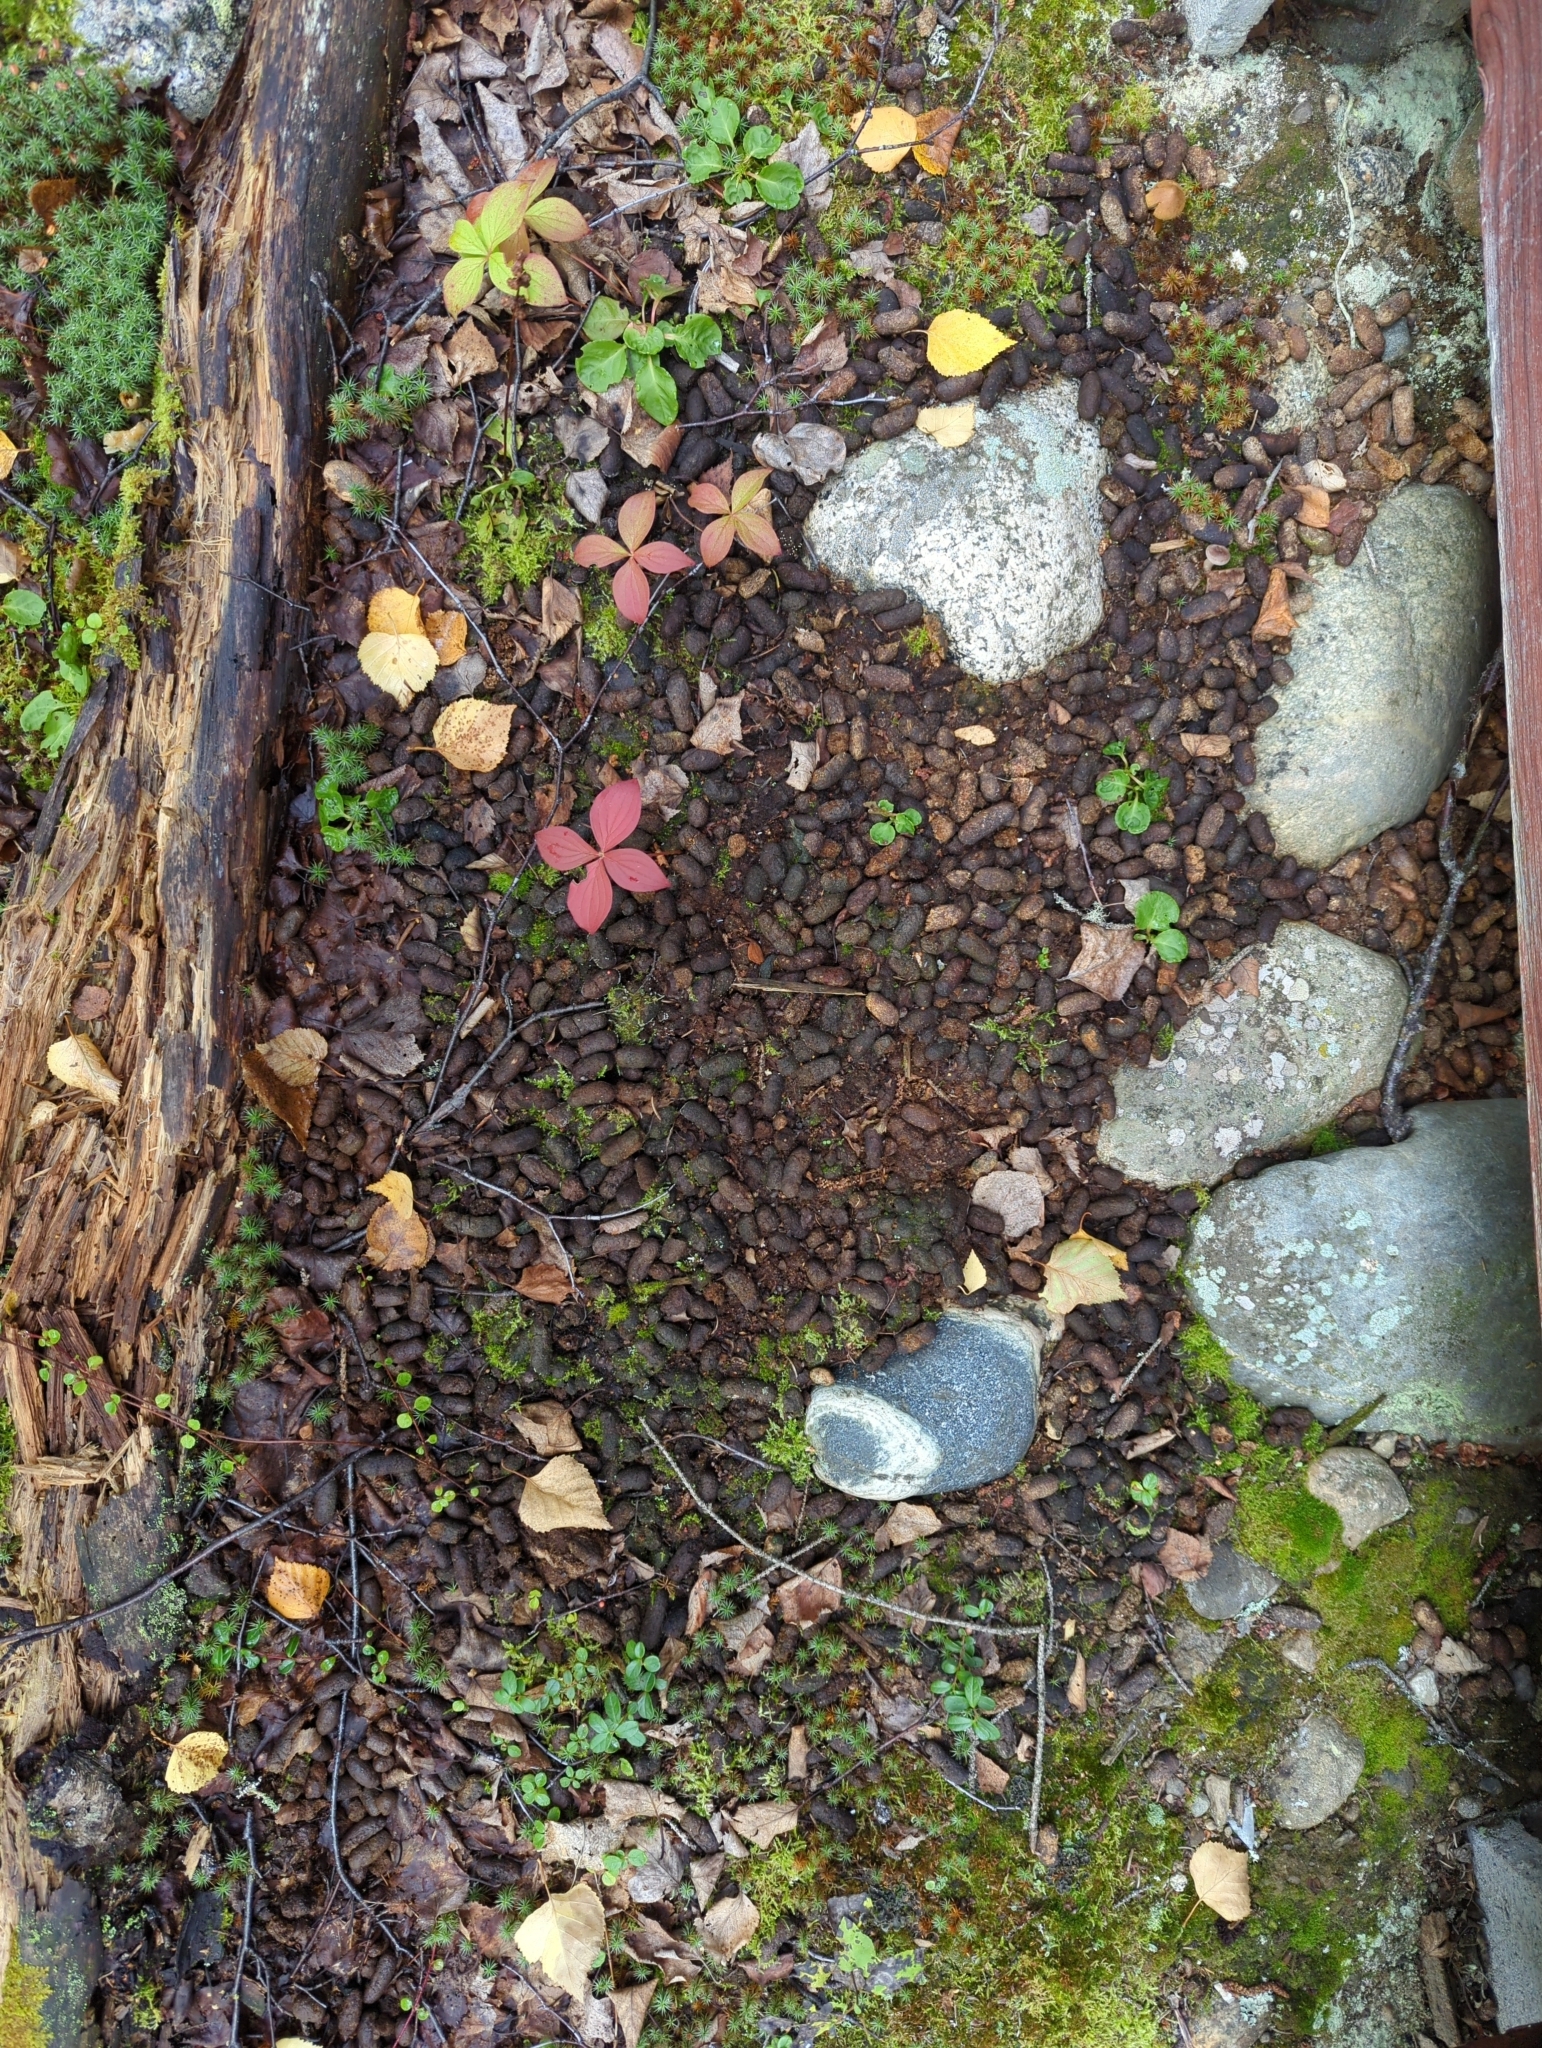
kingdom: Animalia
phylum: Chordata
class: Mammalia
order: Rodentia
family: Erethizontidae
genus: Erethizon
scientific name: Erethizon dorsatus
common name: North american porcupine
